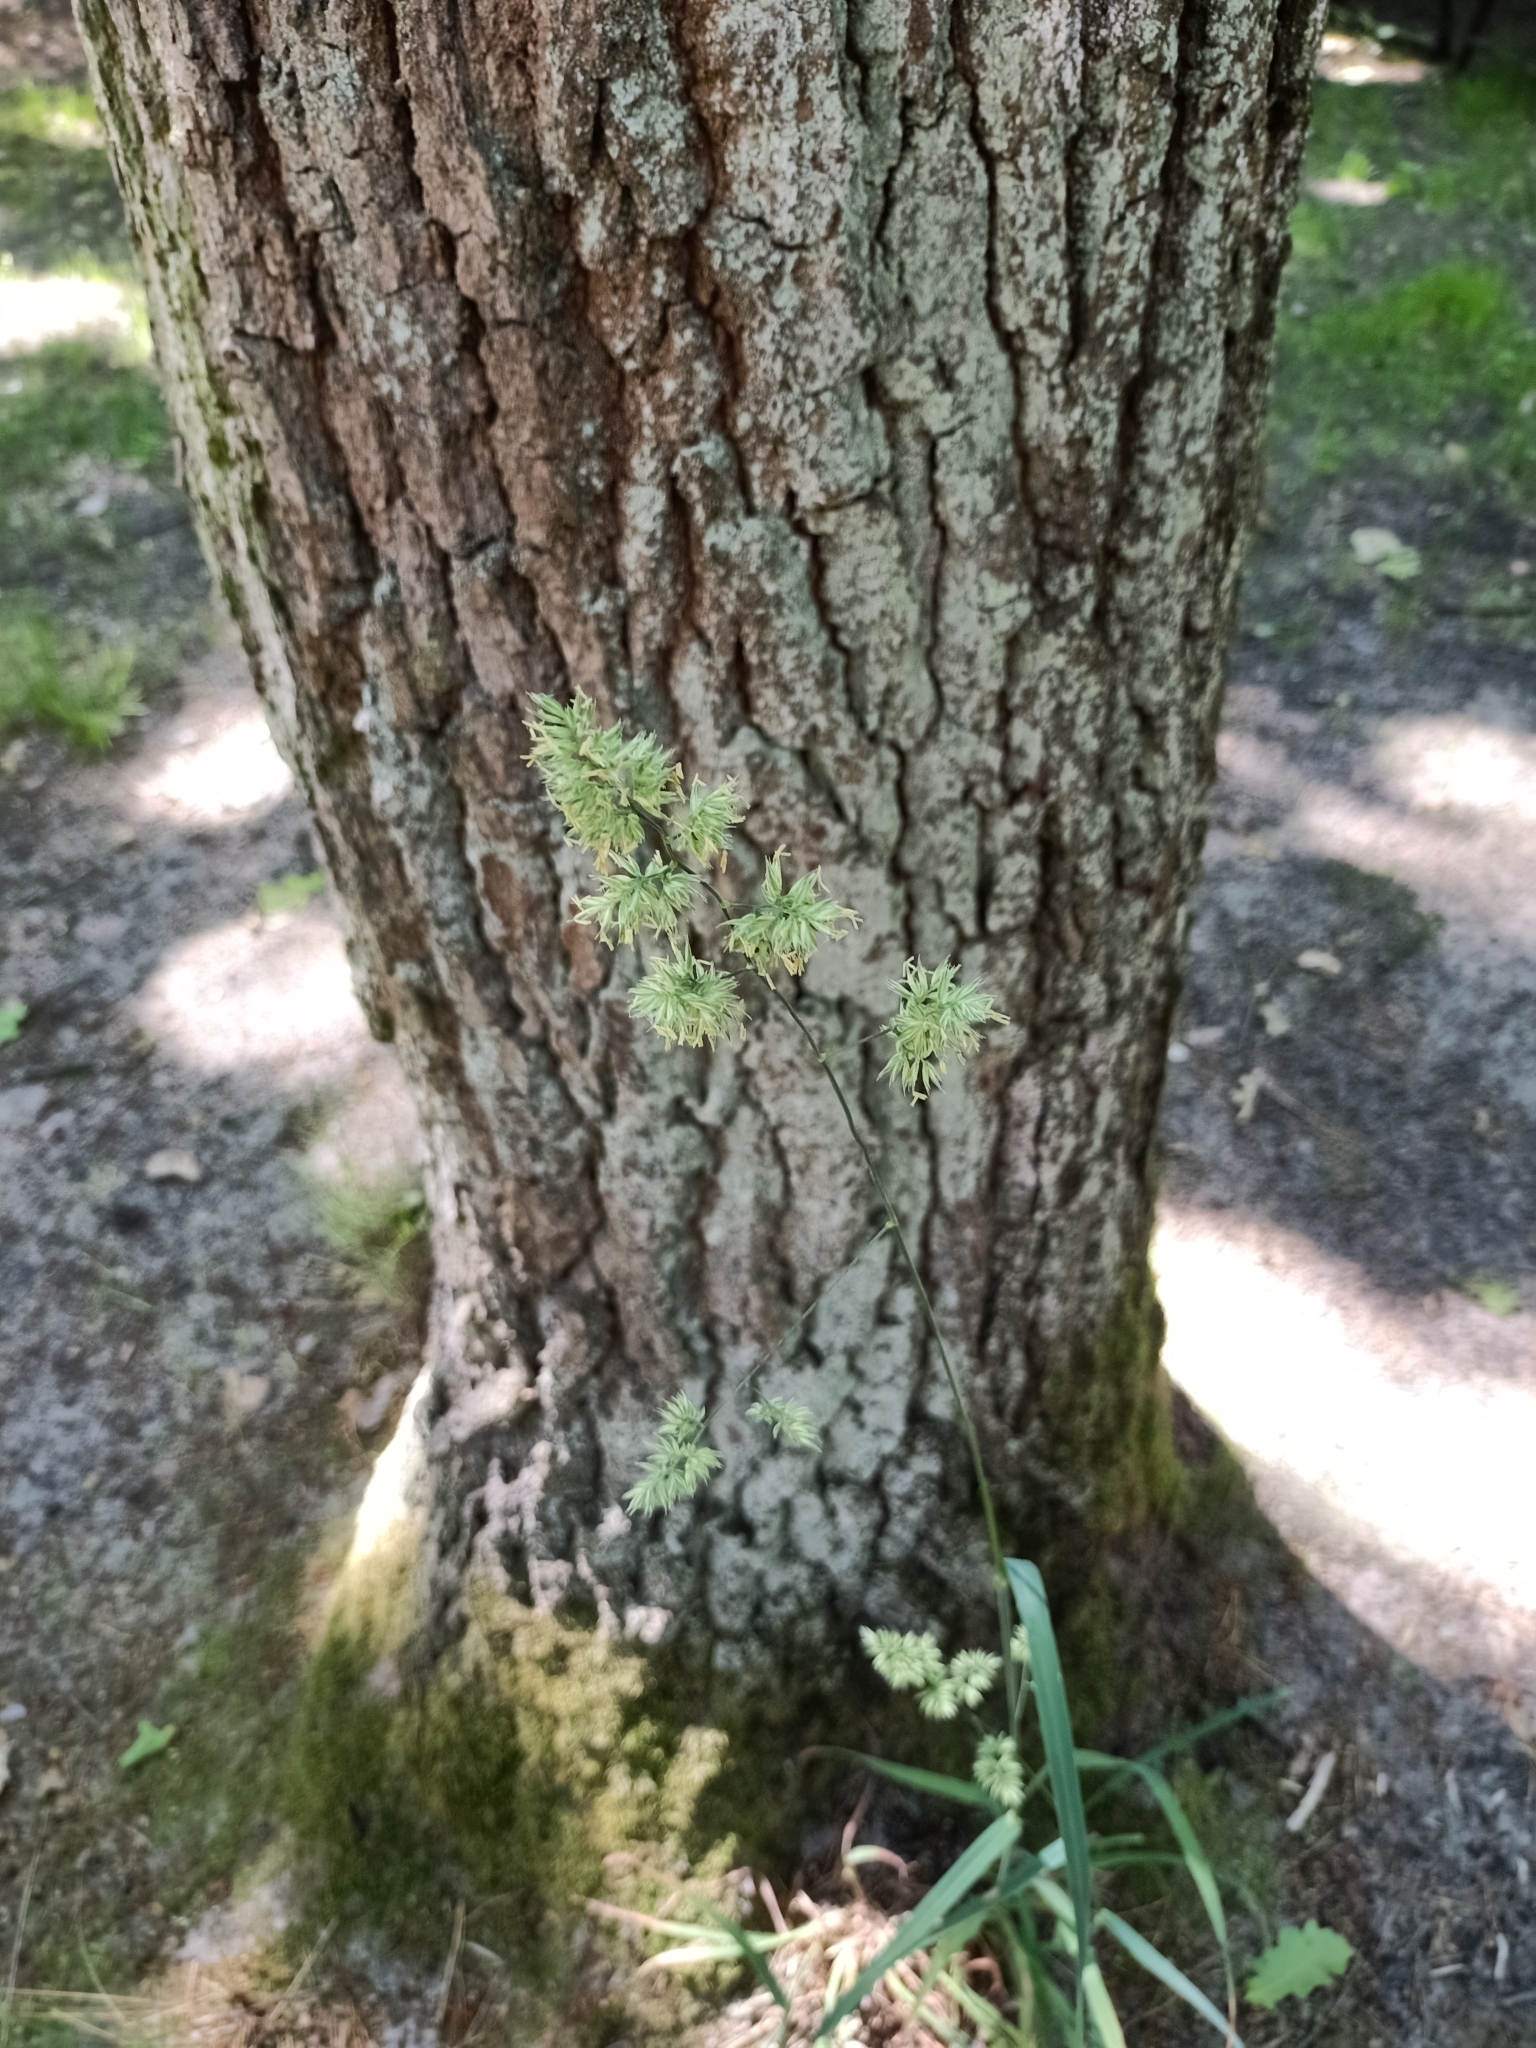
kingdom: Plantae
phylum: Tracheophyta
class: Liliopsida
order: Poales
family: Poaceae
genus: Dactylis
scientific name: Dactylis glomerata
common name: Orchardgrass
